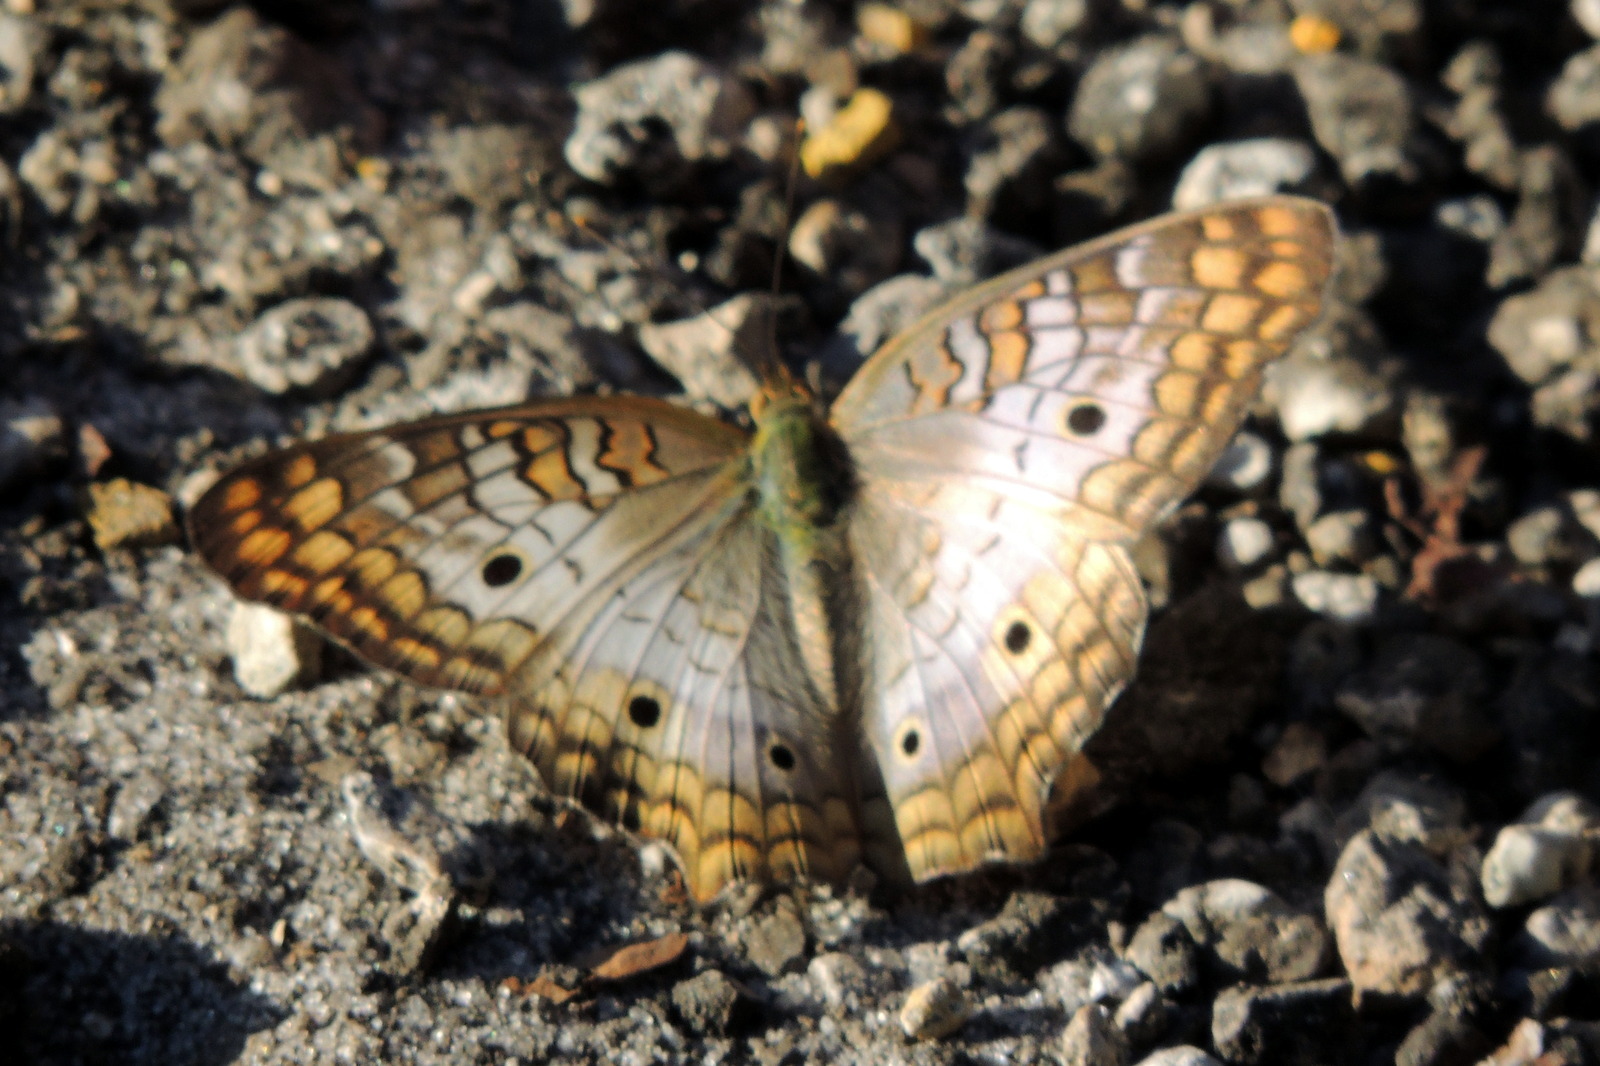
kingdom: Animalia
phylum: Arthropoda
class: Insecta
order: Lepidoptera
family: Nymphalidae
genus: Anartia
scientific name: Anartia jatrophae
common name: White peacock
